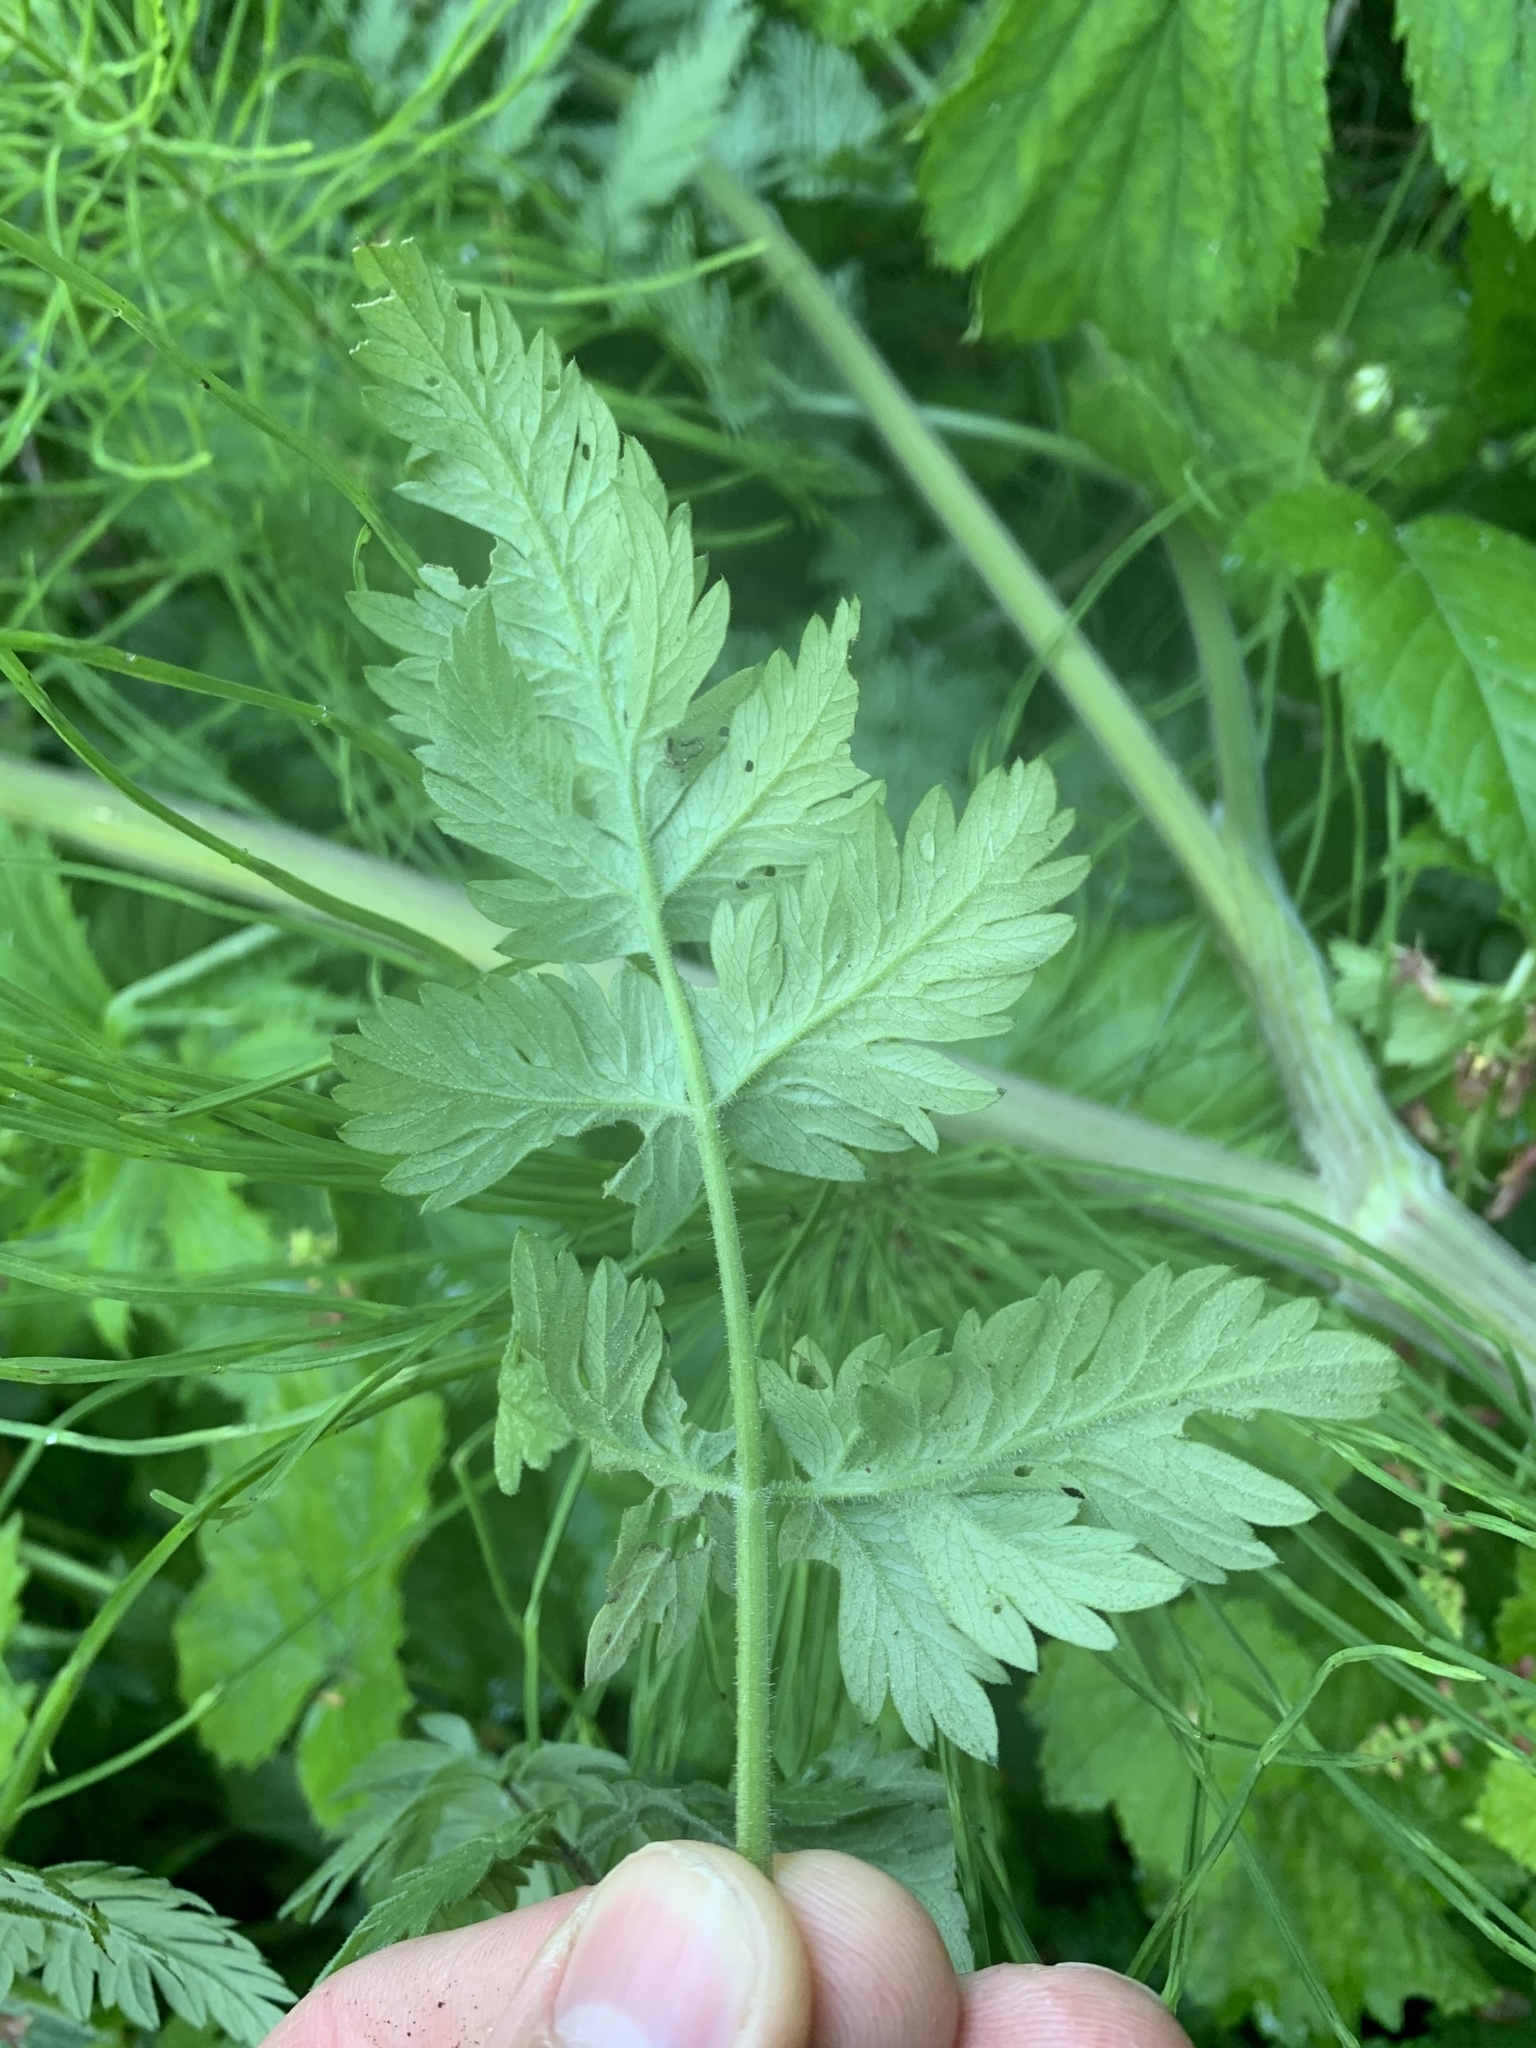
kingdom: Plantae
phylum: Tracheophyta
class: Magnoliopsida
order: Apiales
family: Apiaceae
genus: Anthriscus
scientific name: Anthriscus sylvestris
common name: Cow parsley
